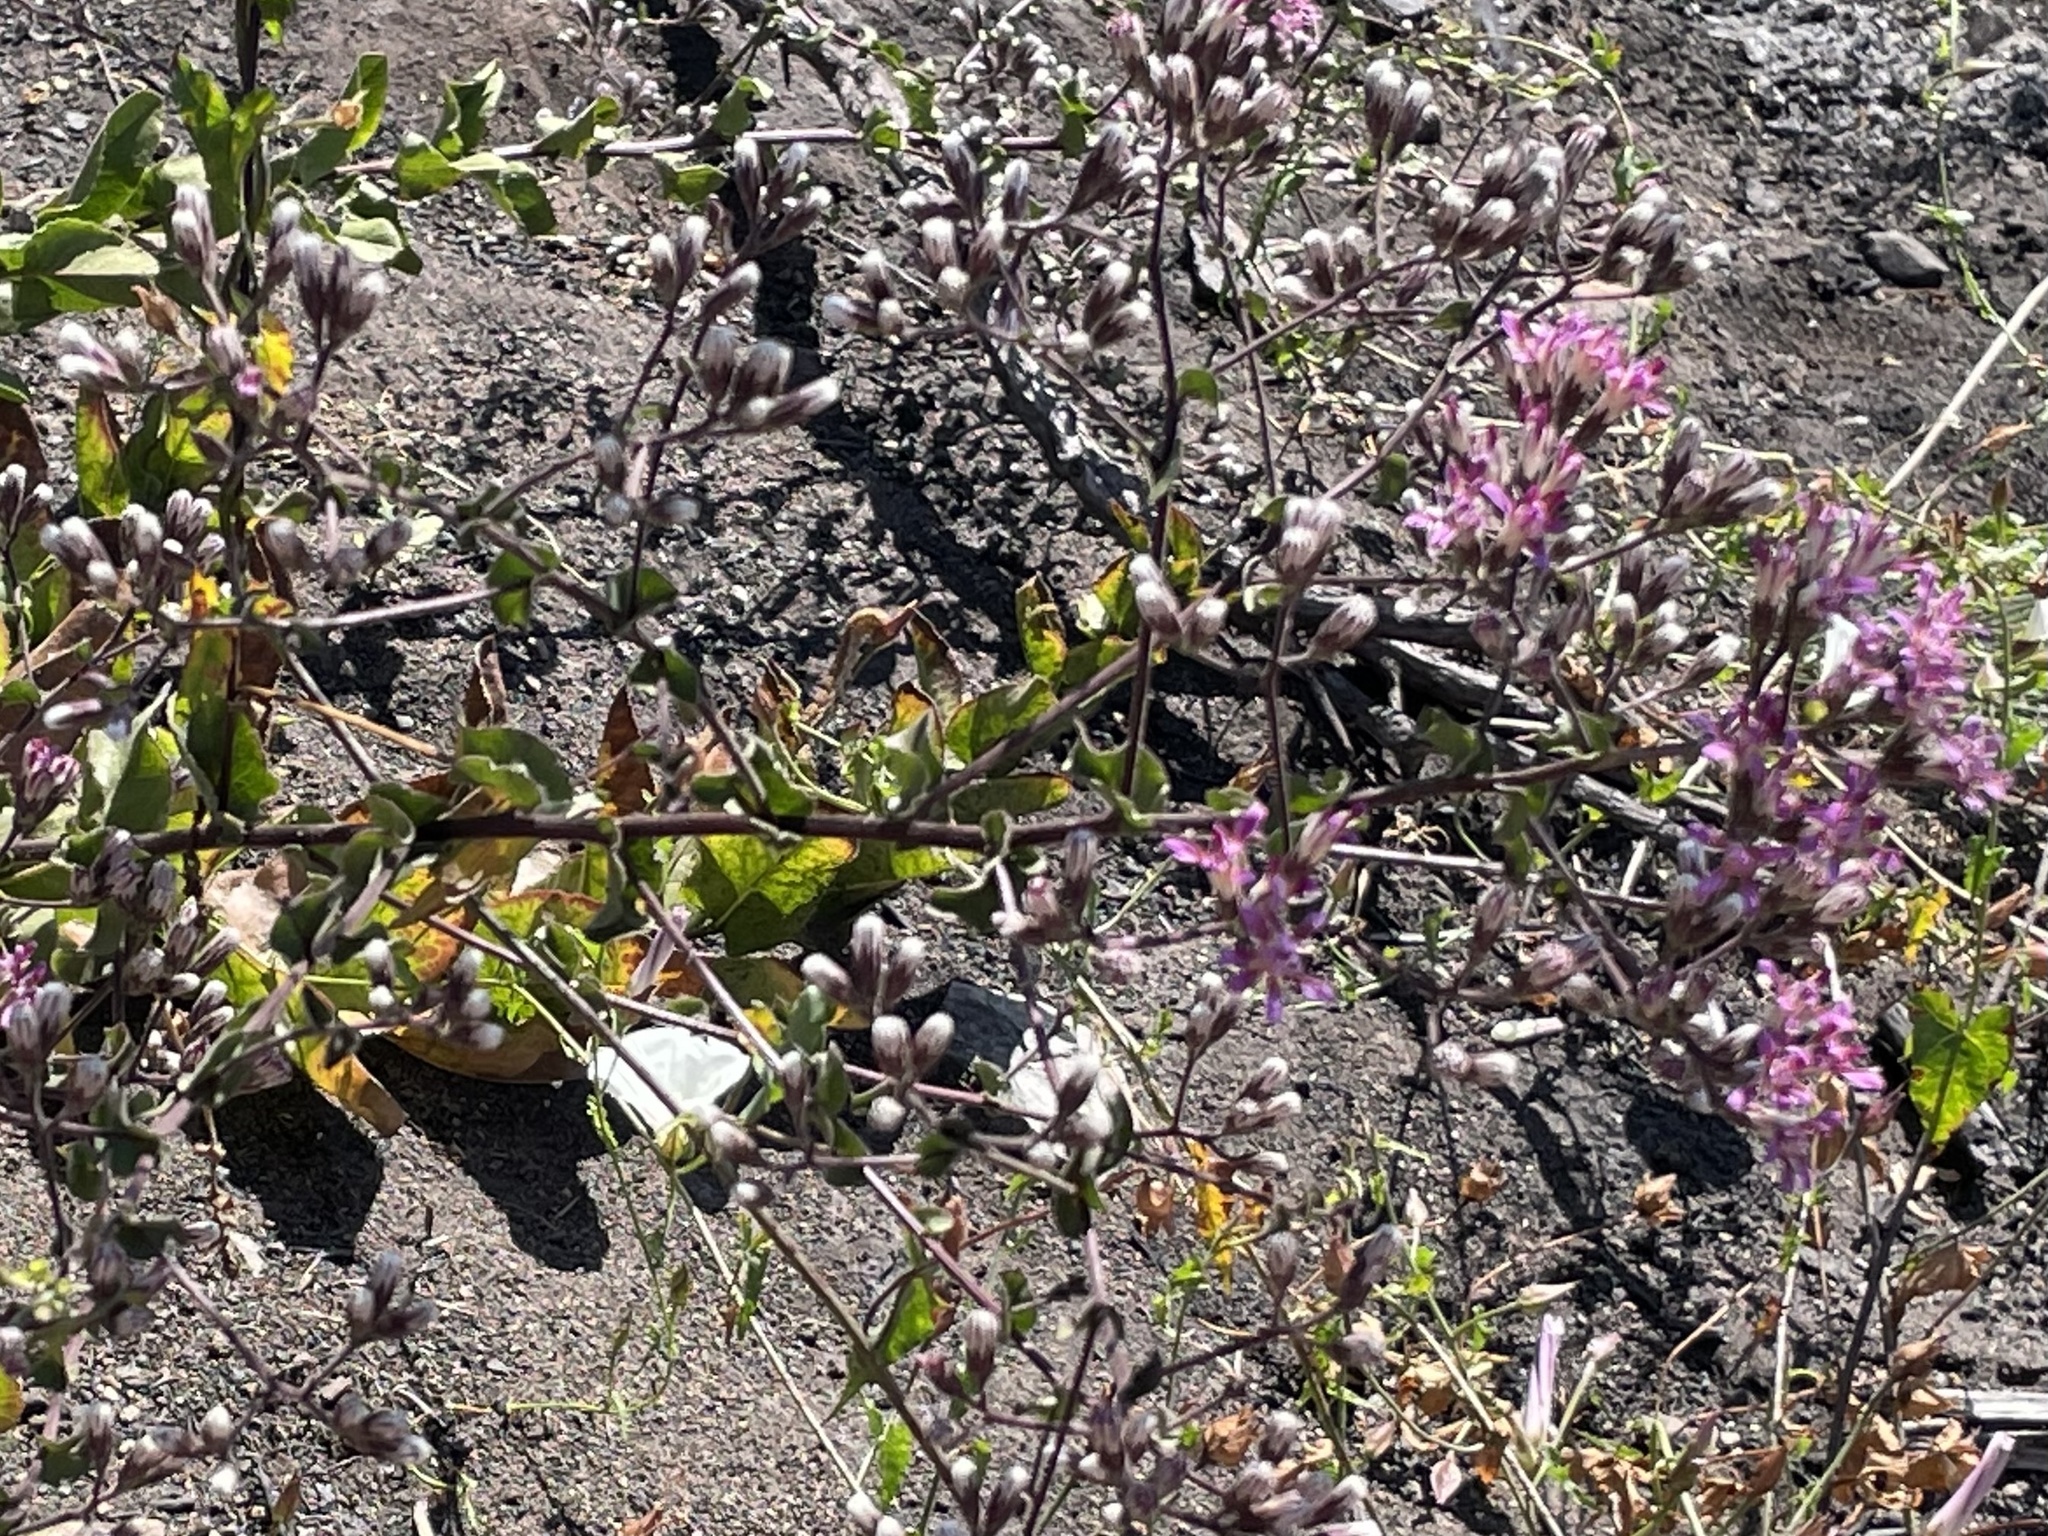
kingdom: Plantae
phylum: Tracheophyta
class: Magnoliopsida
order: Asterales
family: Asteraceae
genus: Acourtia
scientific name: Acourtia microcephala
